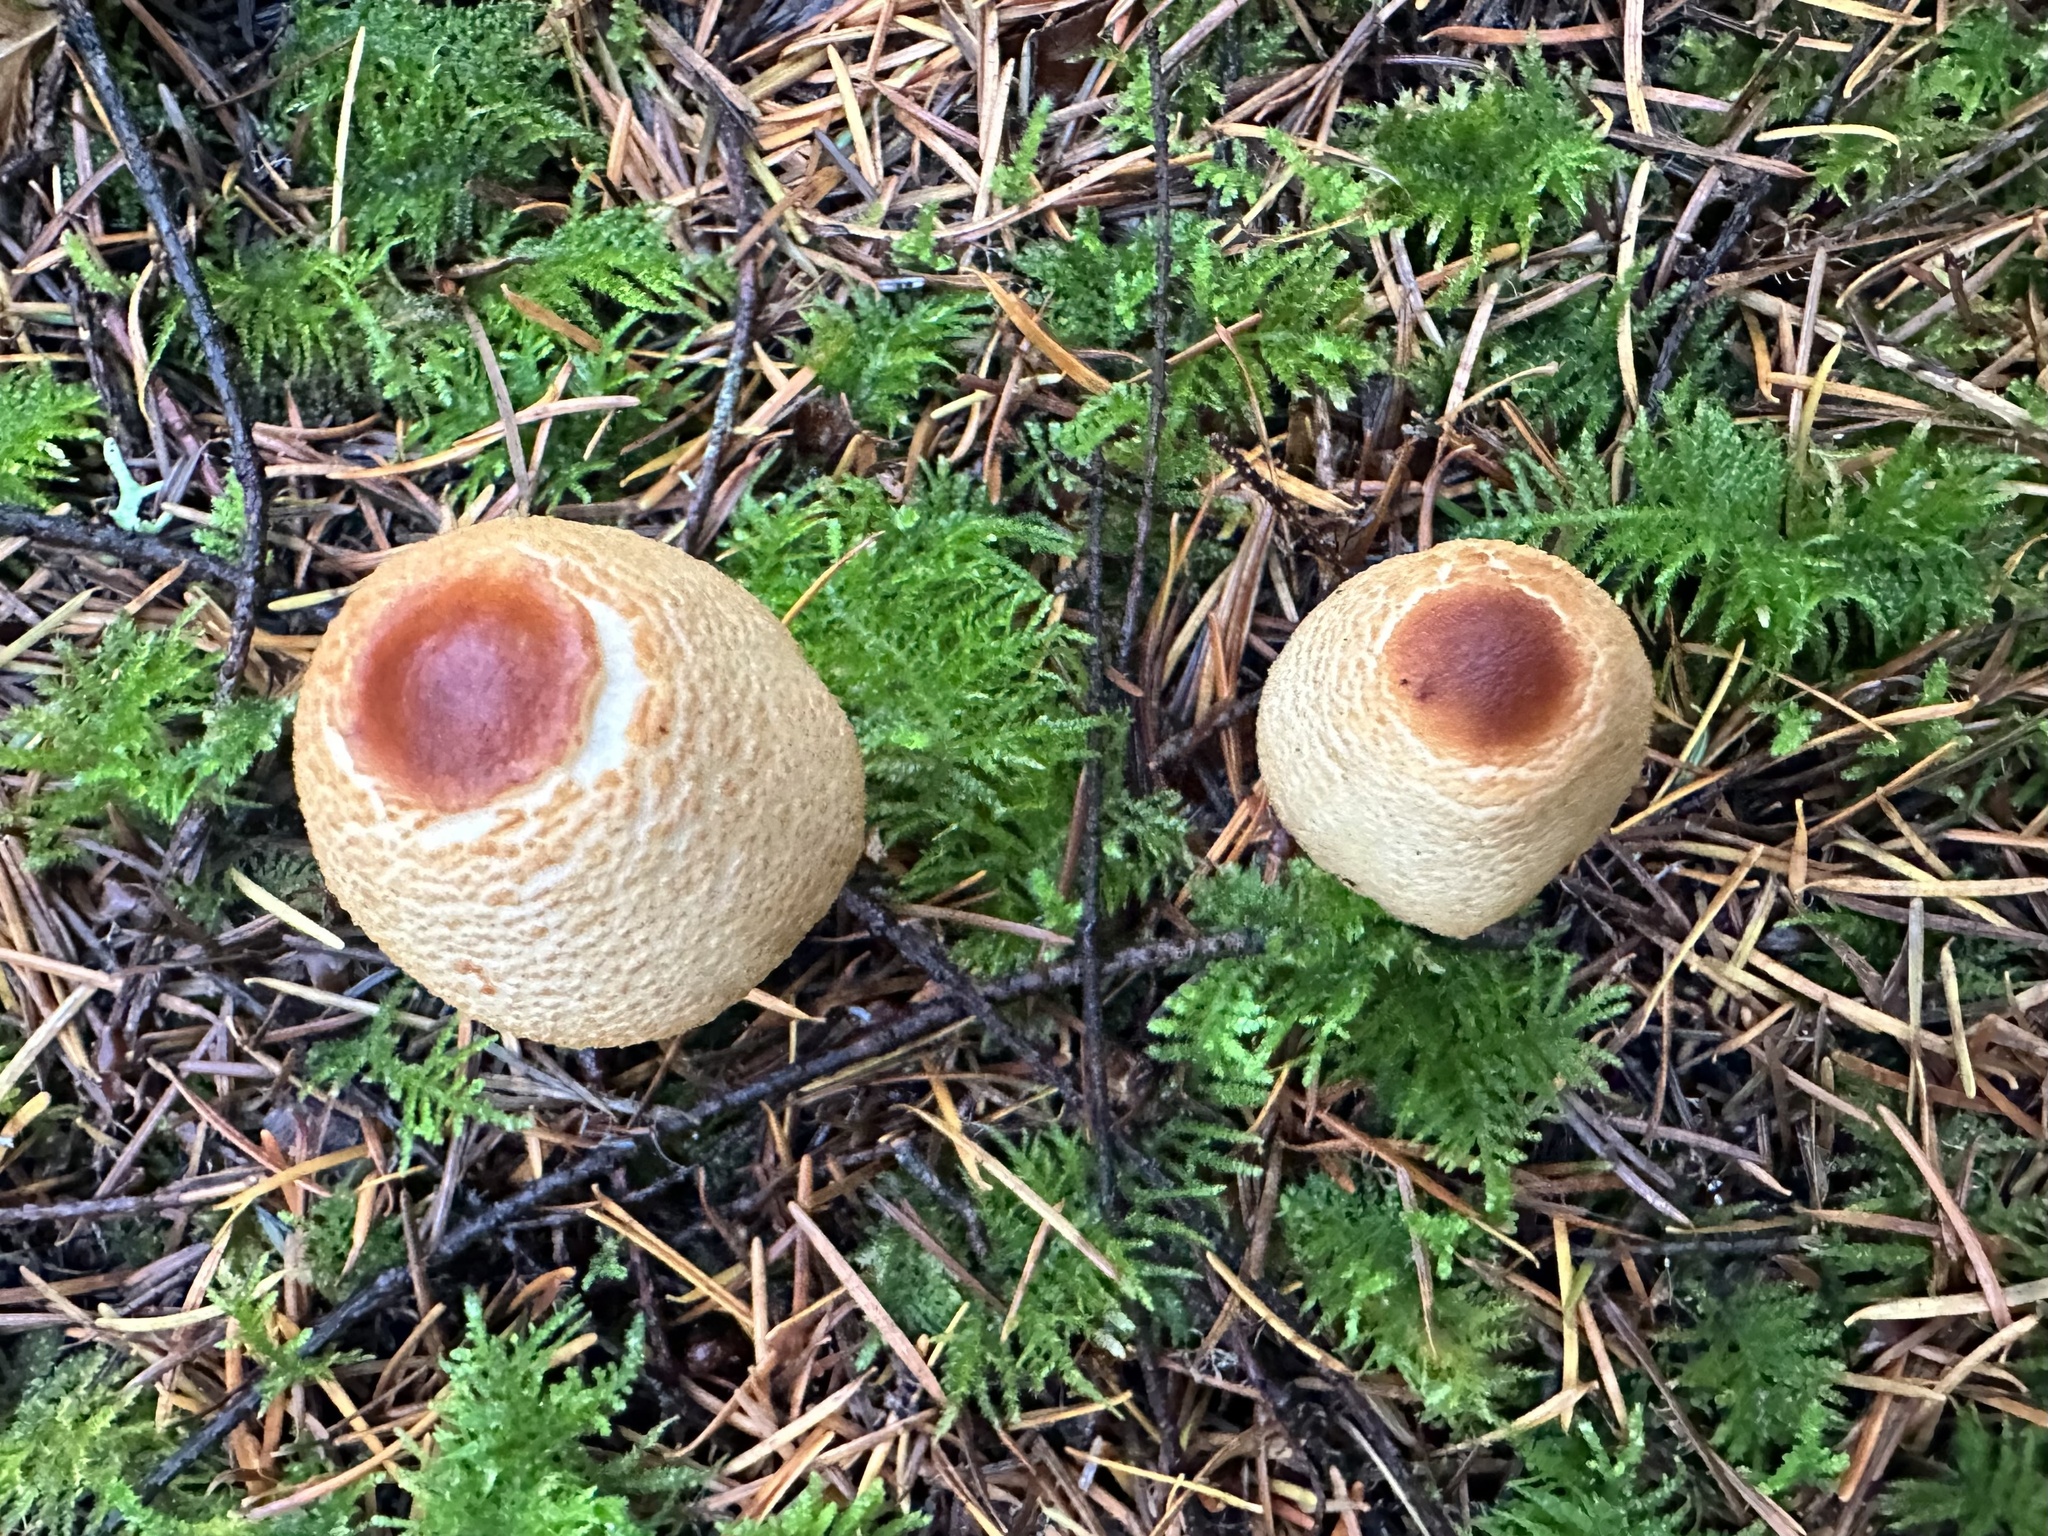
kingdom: Fungi
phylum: Basidiomycota
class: Agaricomycetes
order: Agaricales
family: Agaricaceae
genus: Lepiota
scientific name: Lepiota magnispora
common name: Yellowfoot dapperling
